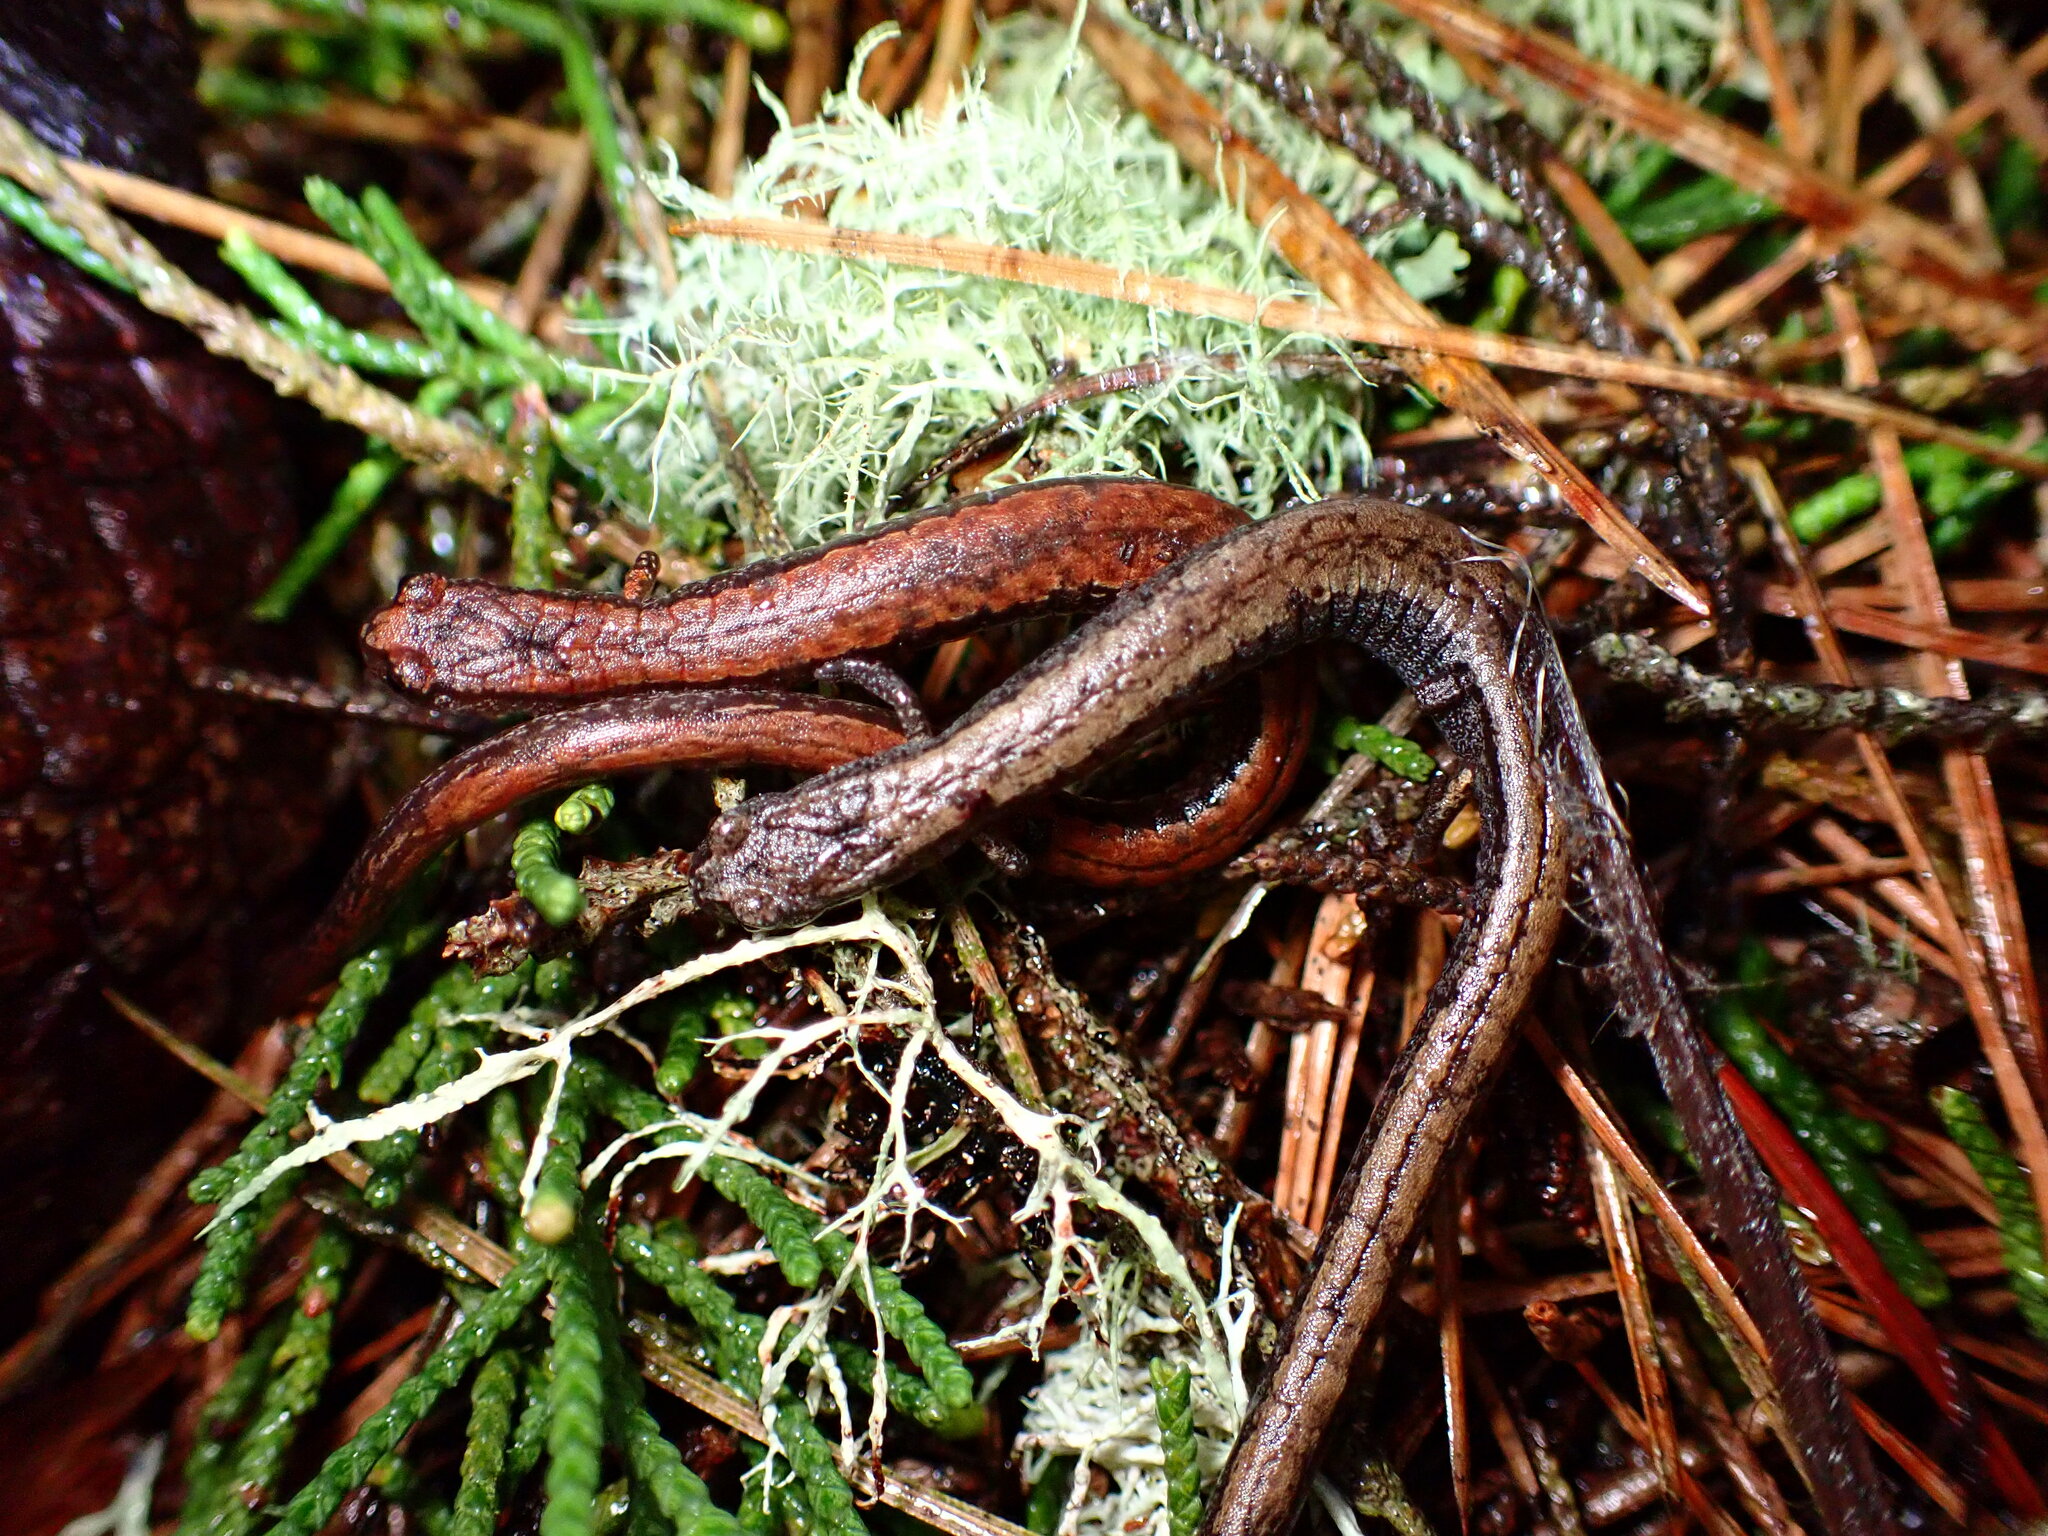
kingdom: Animalia
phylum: Chordata
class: Amphibia
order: Caudata
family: Plethodontidae
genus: Batrachoseps
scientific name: Batrachoseps attenuatus
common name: California slender salamander
